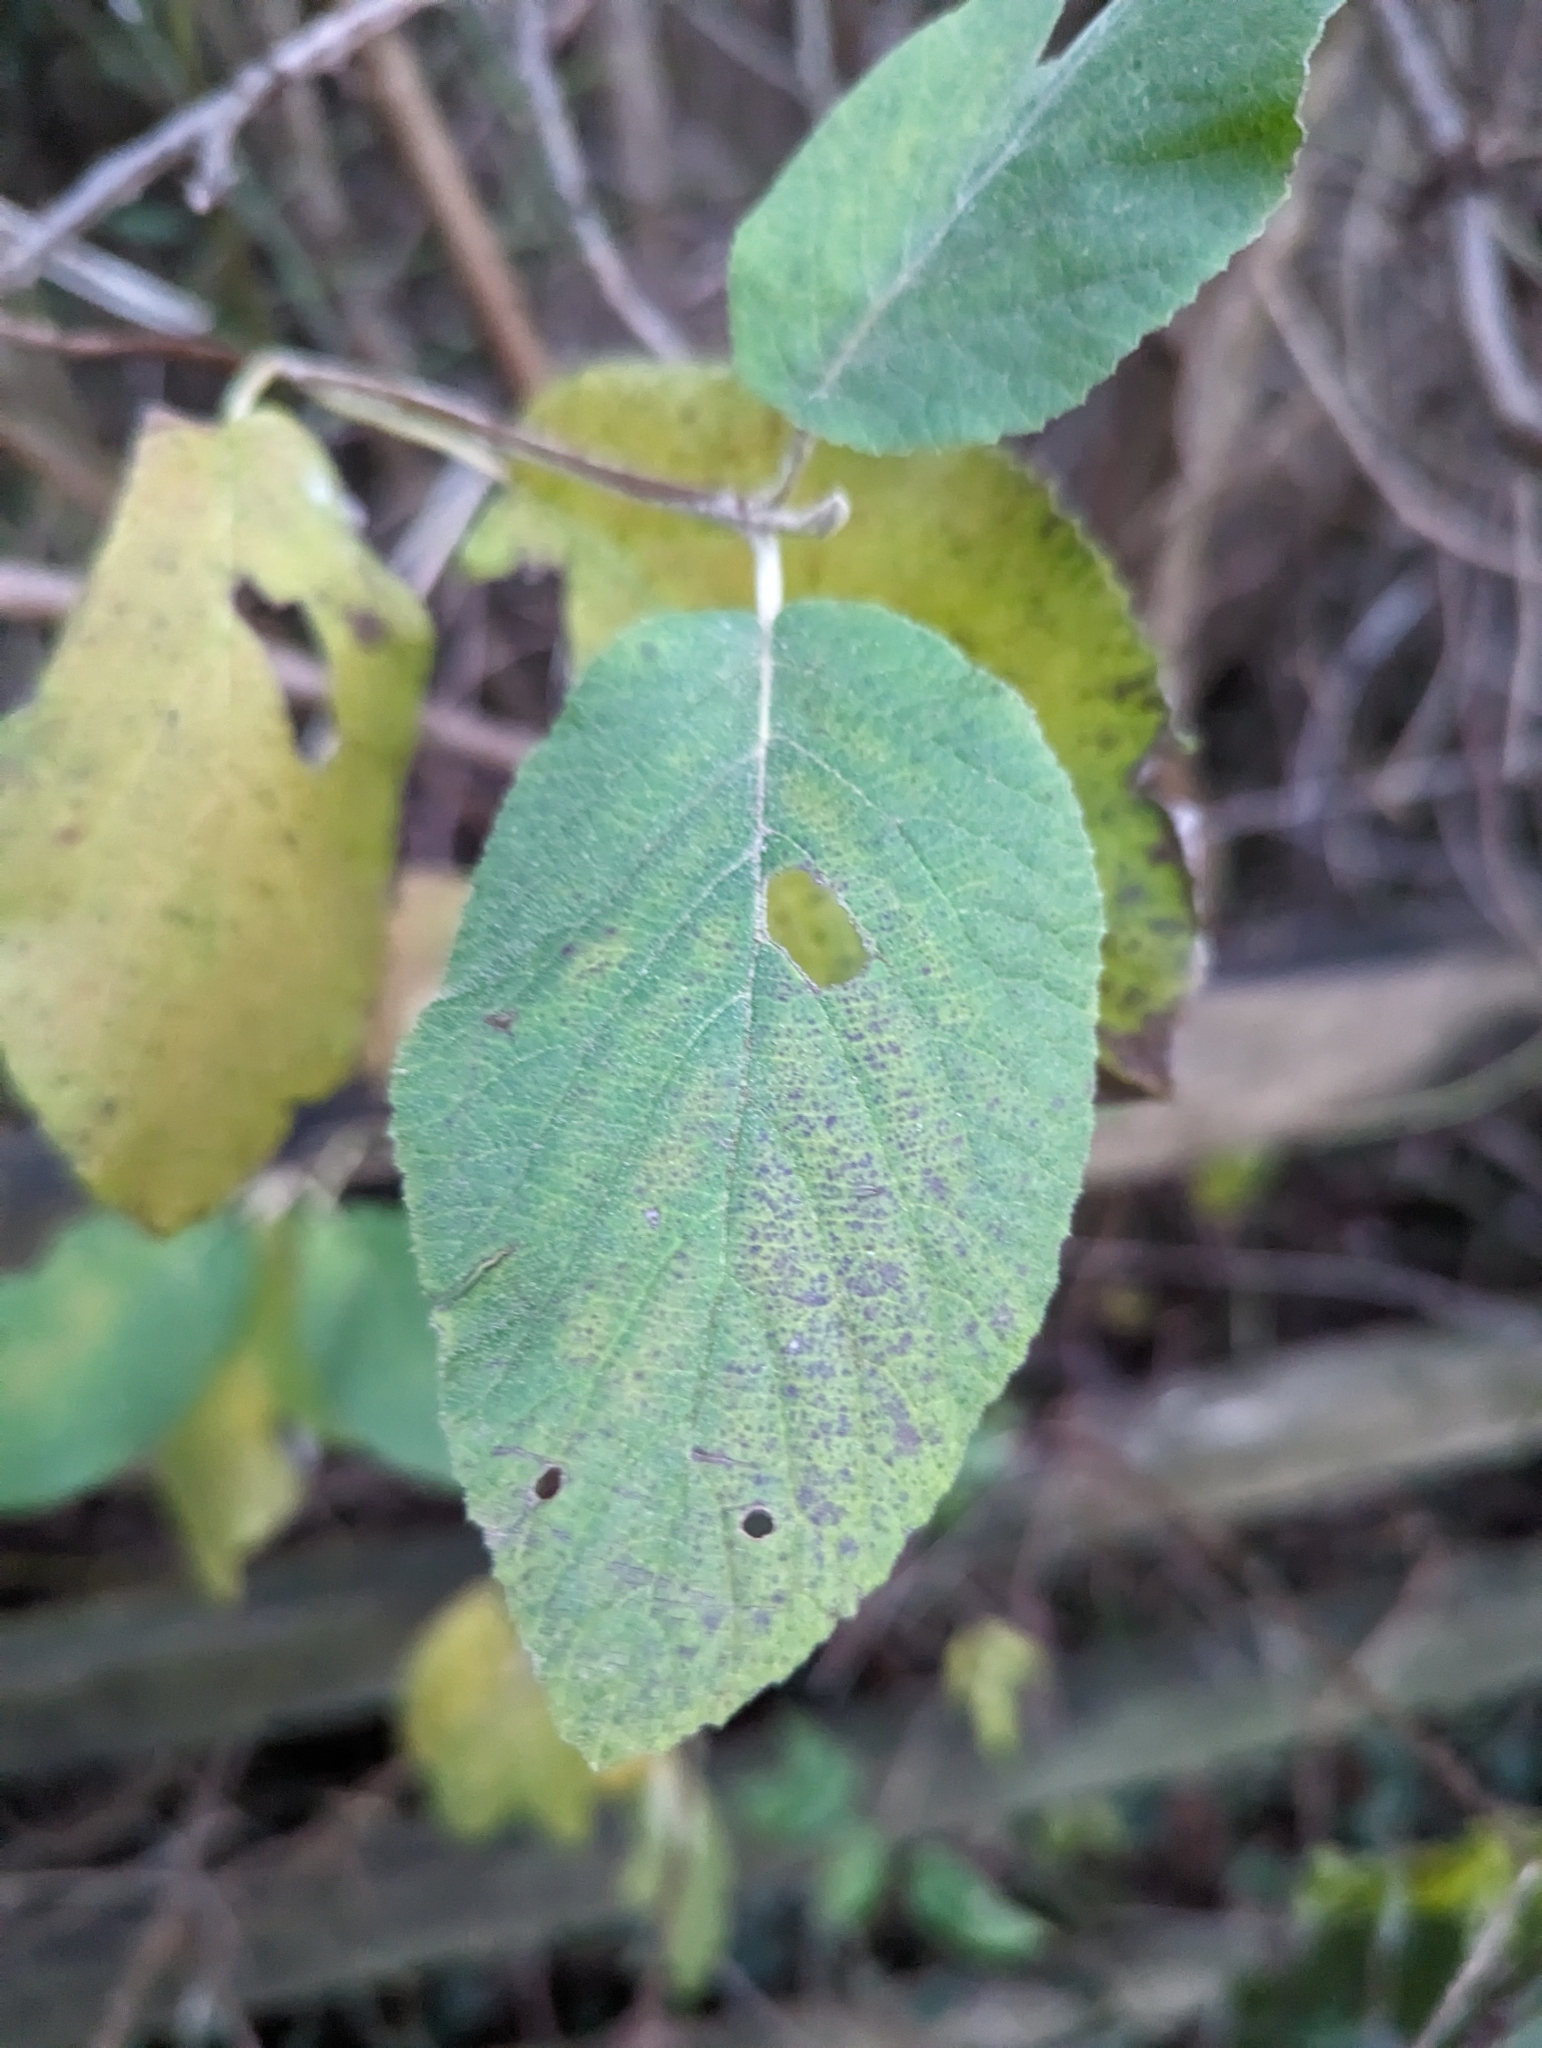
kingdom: Plantae
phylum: Tracheophyta
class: Magnoliopsida
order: Dipsacales
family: Viburnaceae
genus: Viburnum
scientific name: Viburnum lantana
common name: Wayfaring tree
